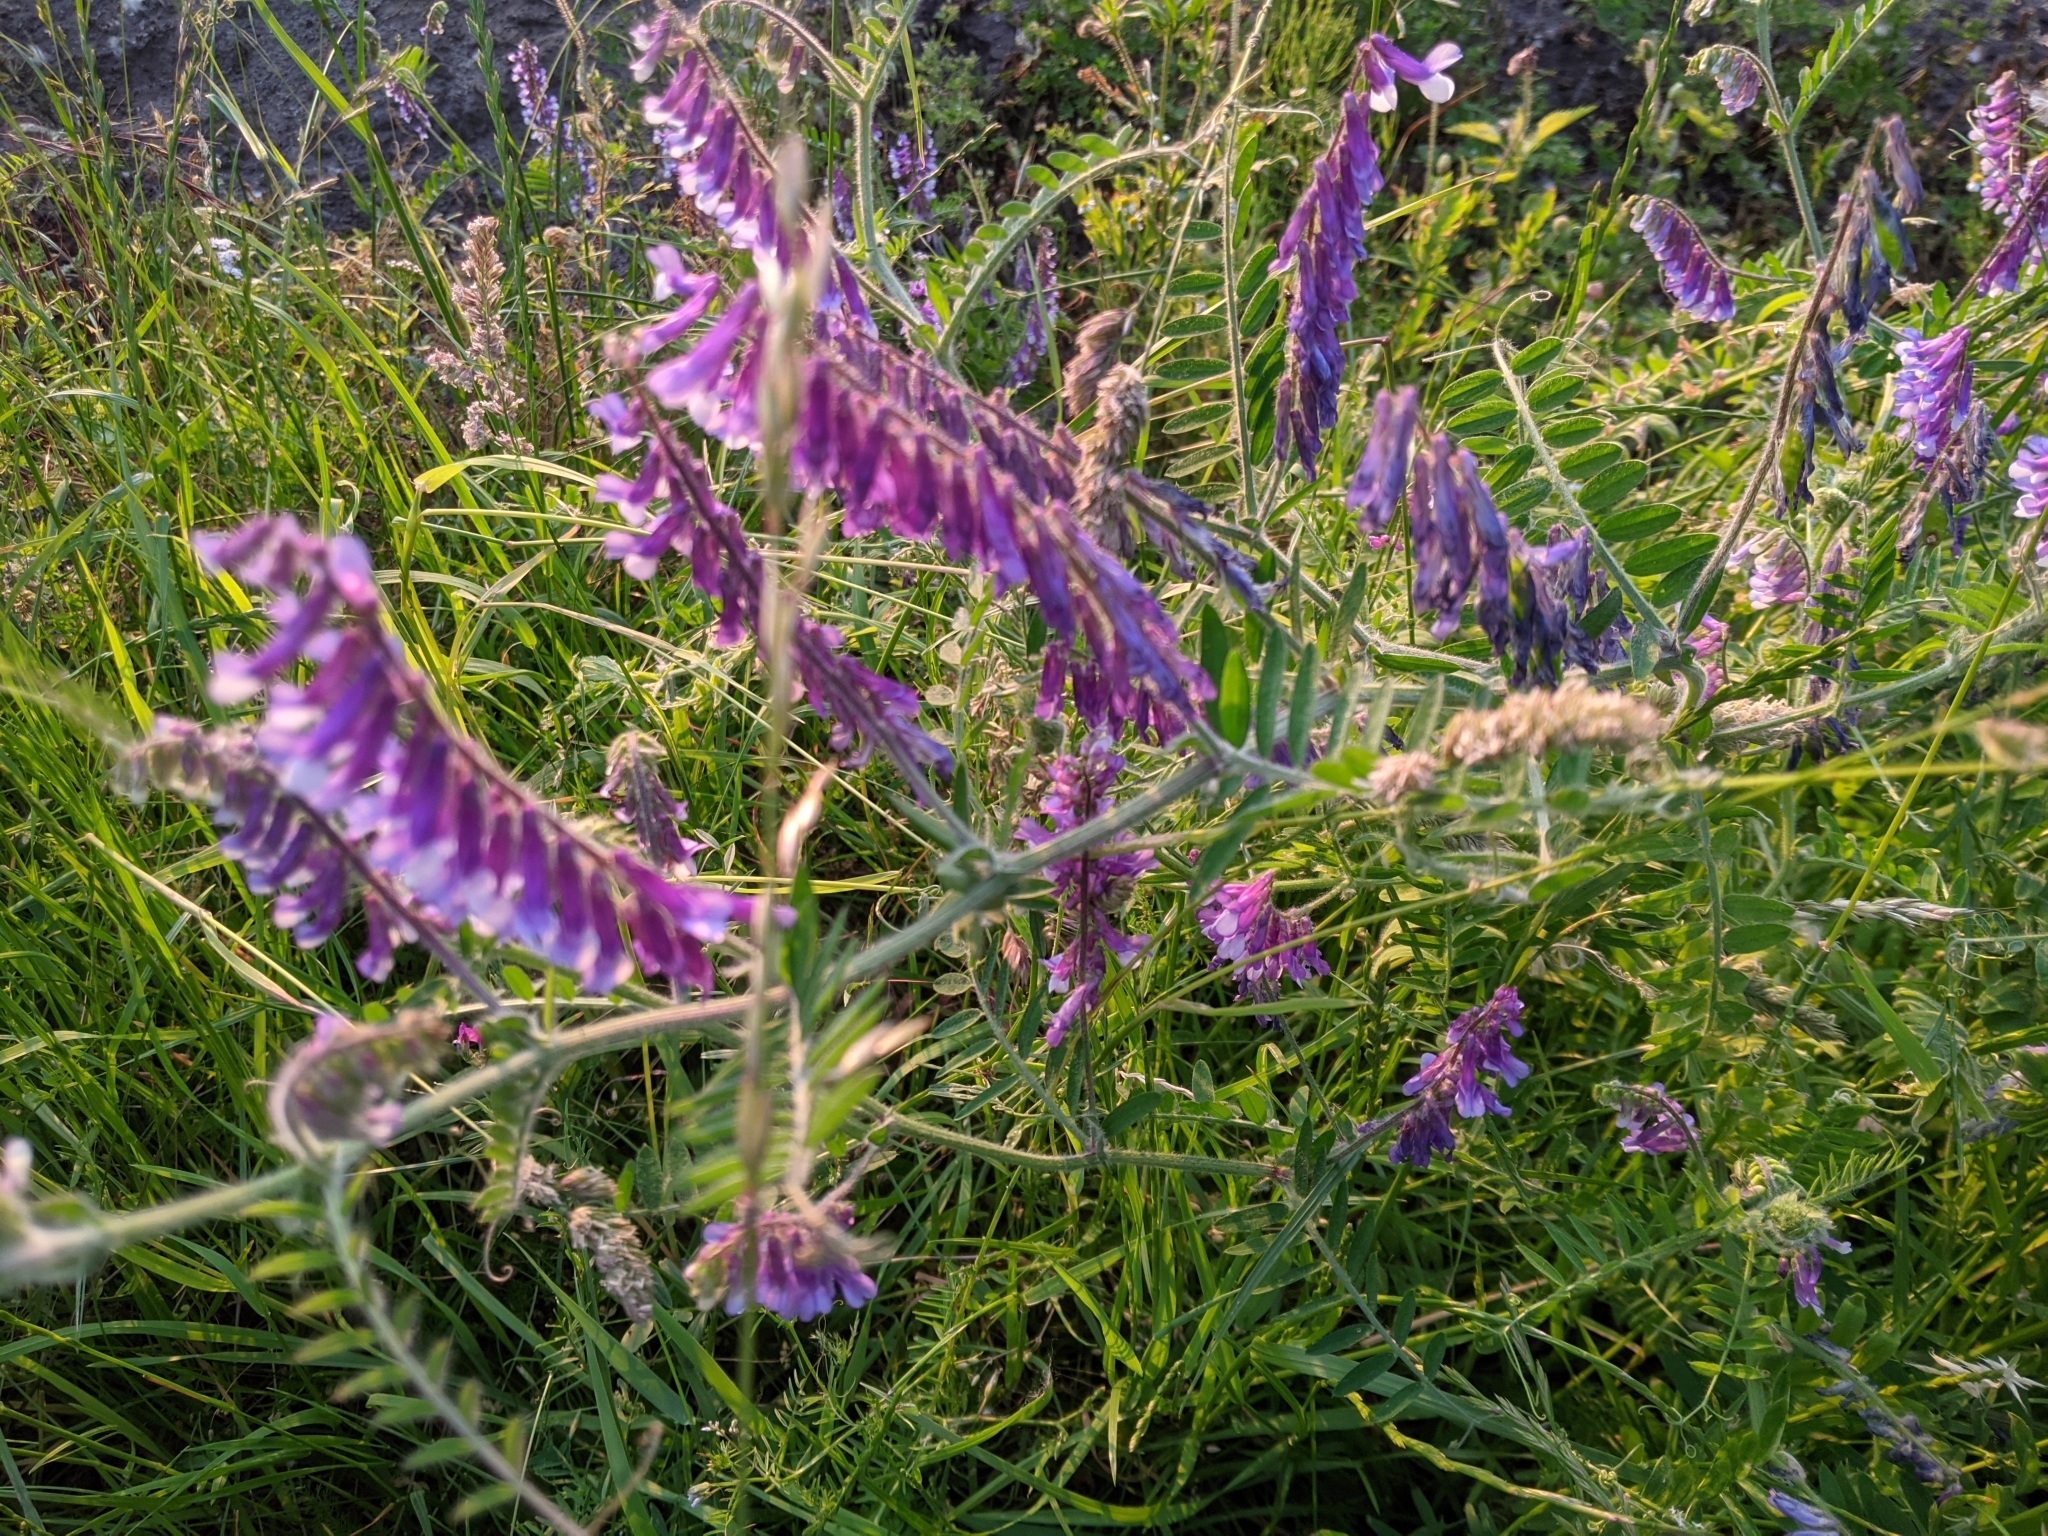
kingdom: Plantae
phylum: Tracheophyta
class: Magnoliopsida
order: Fabales
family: Fabaceae
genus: Vicia
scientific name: Vicia villosa
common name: Fodder vetch
